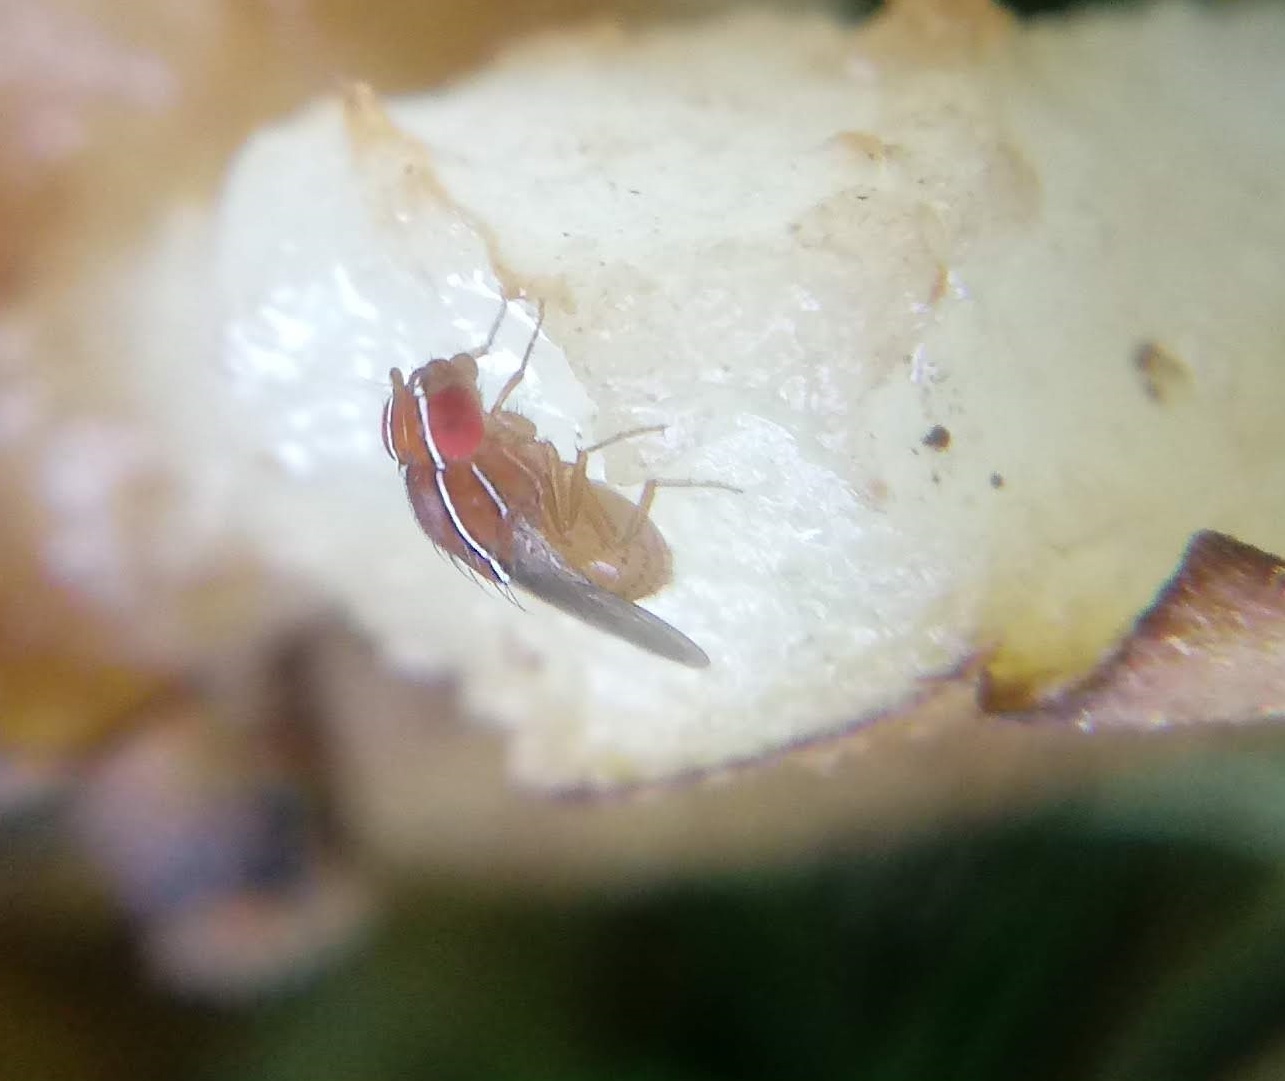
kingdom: Animalia
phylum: Arthropoda
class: Insecta
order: Diptera
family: Drosophilidae
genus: Zaprionus
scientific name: Zaprionus indianus
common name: African fig fly
